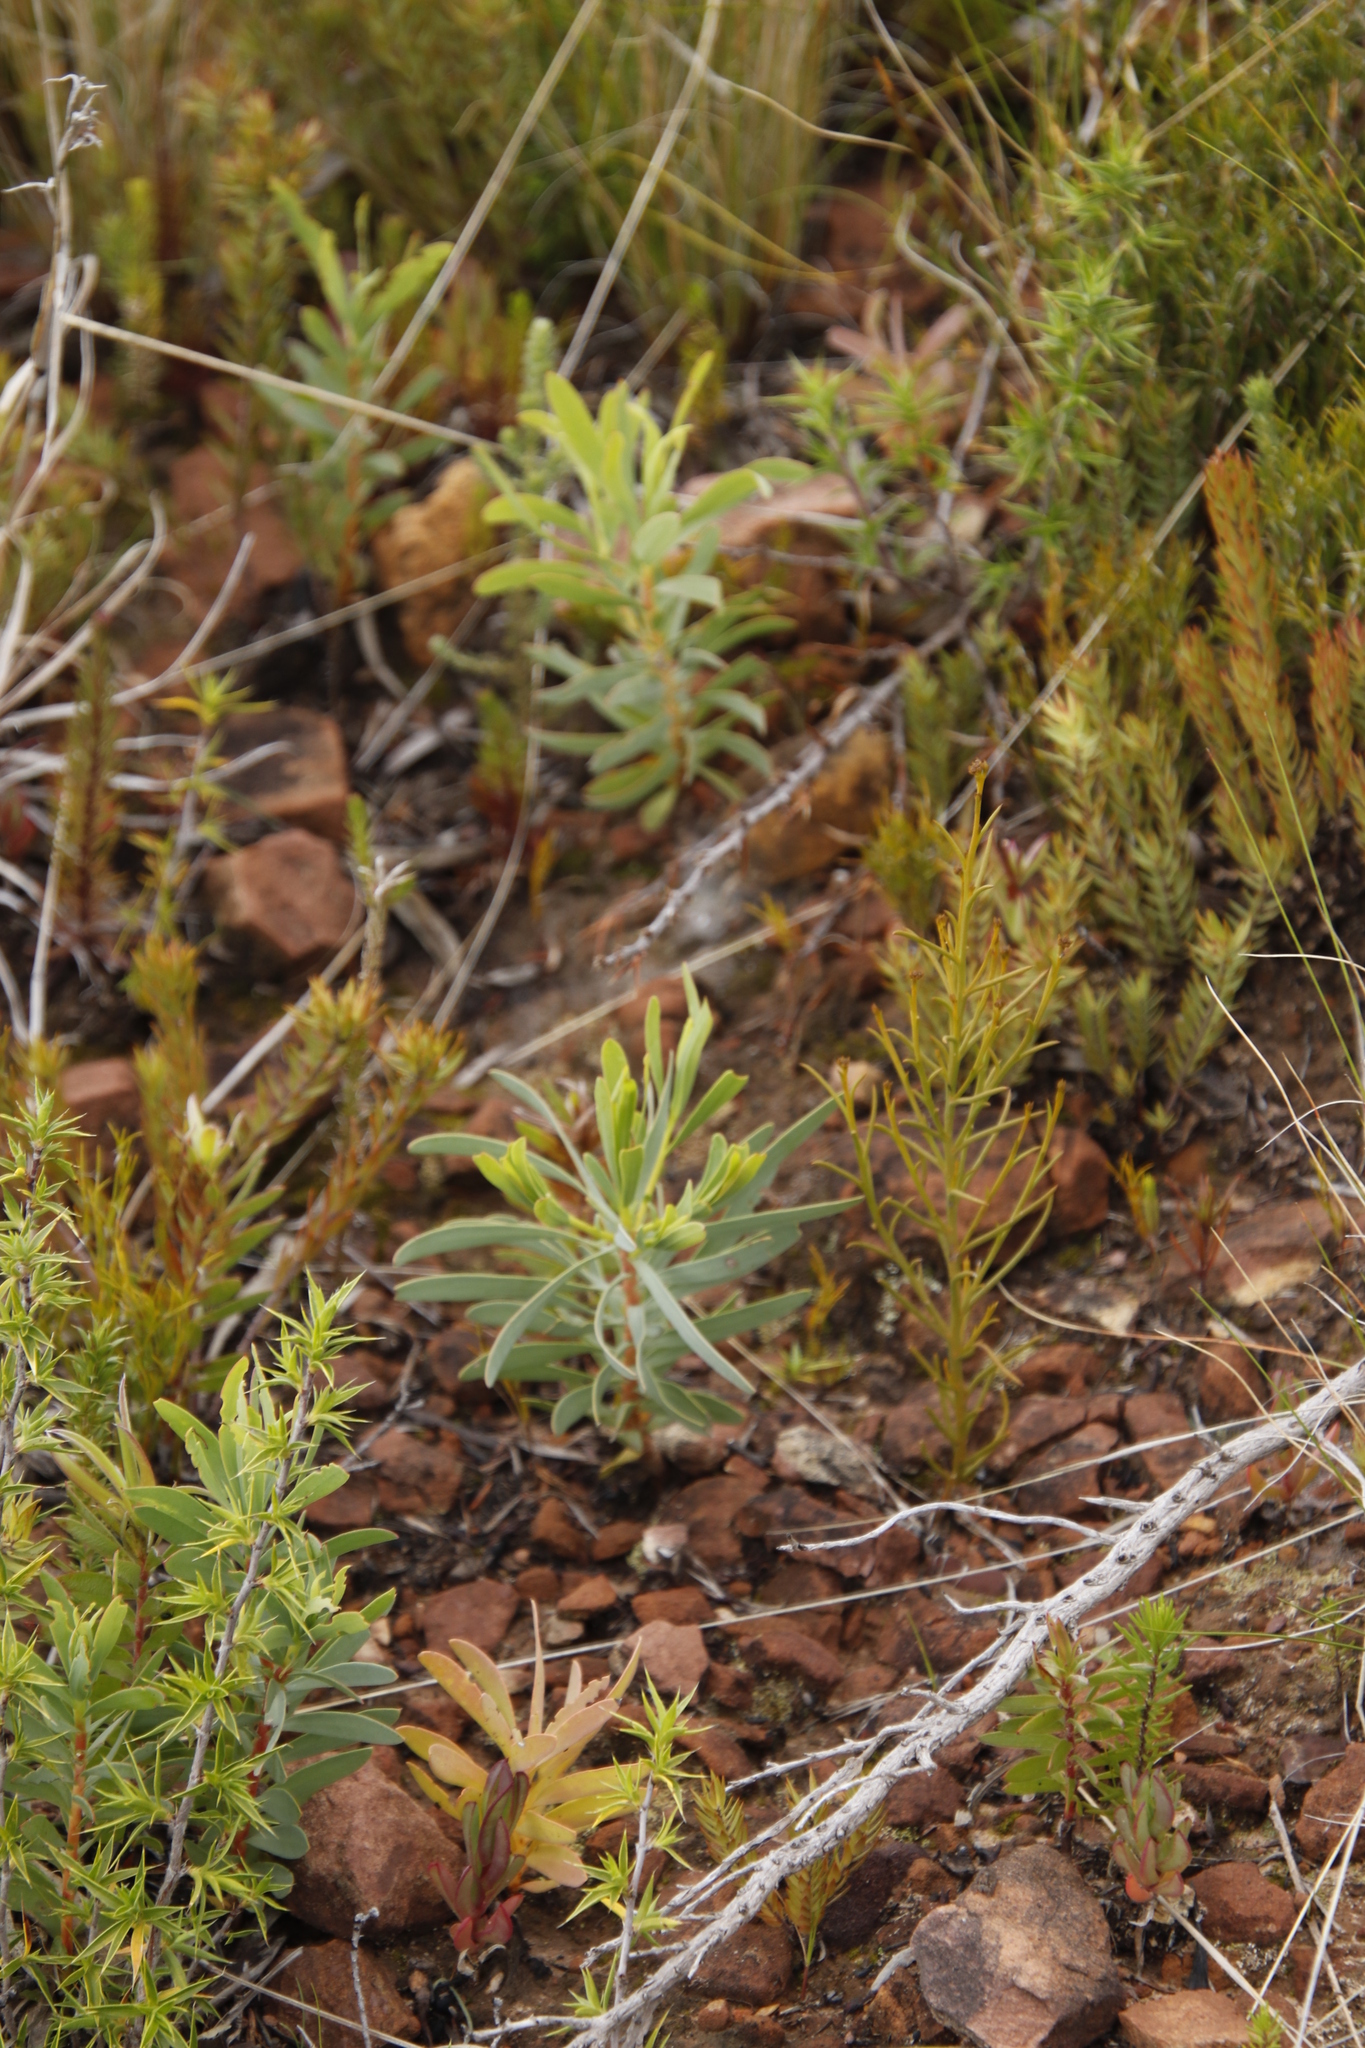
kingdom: Plantae
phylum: Tracheophyta
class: Magnoliopsida
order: Proteales
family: Proteaceae
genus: Protea
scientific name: Protea repens
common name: Sugarbush
